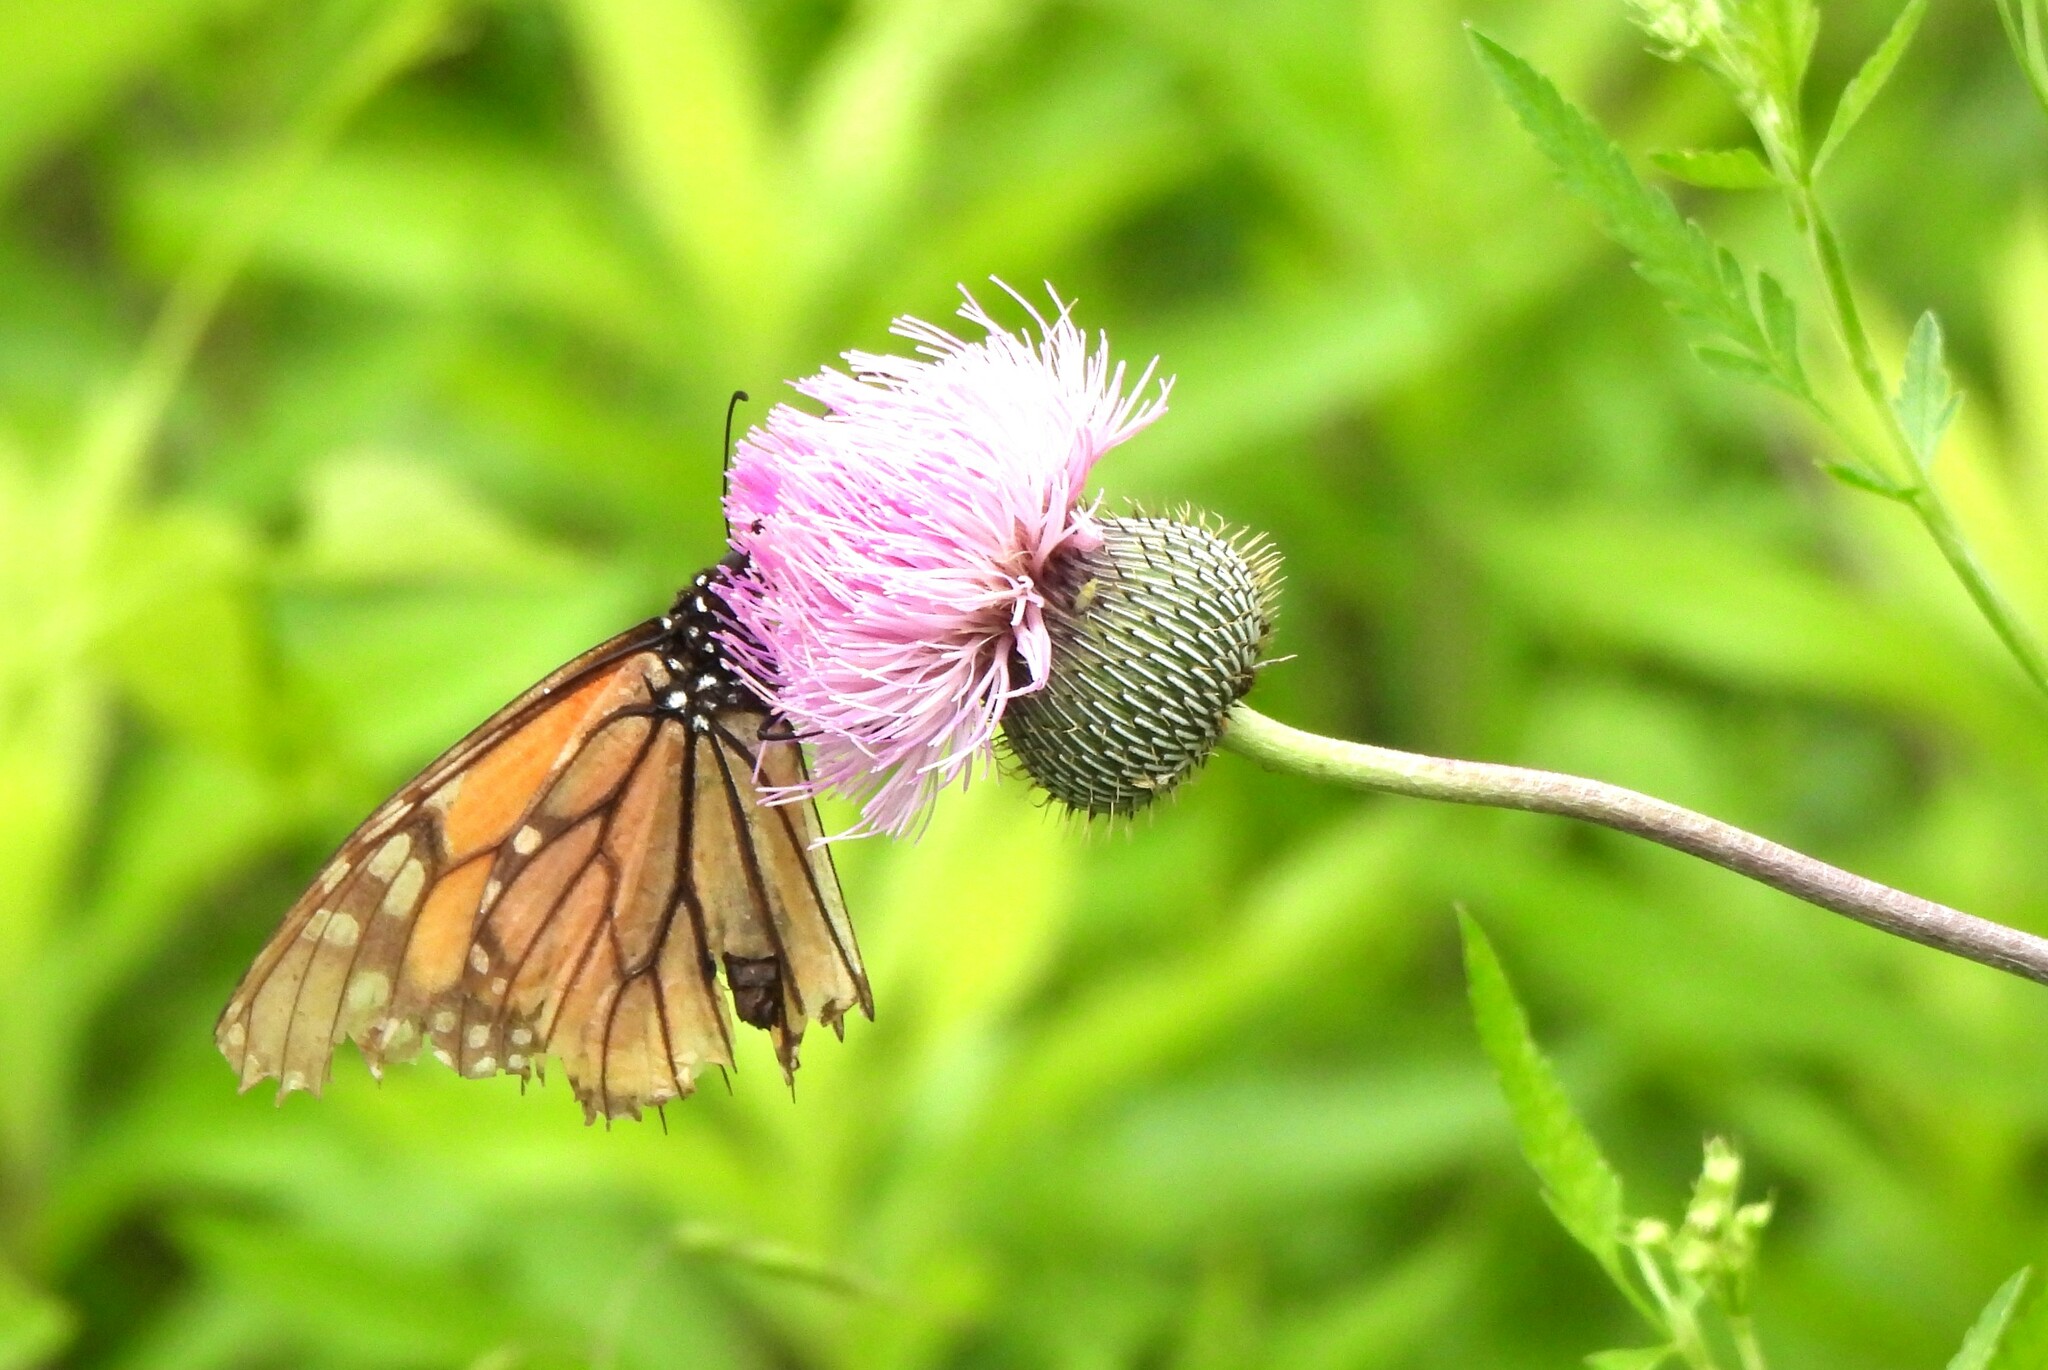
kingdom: Animalia
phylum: Arthropoda
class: Insecta
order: Lepidoptera
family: Nymphalidae
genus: Danaus
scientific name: Danaus plexippus
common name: Monarch
